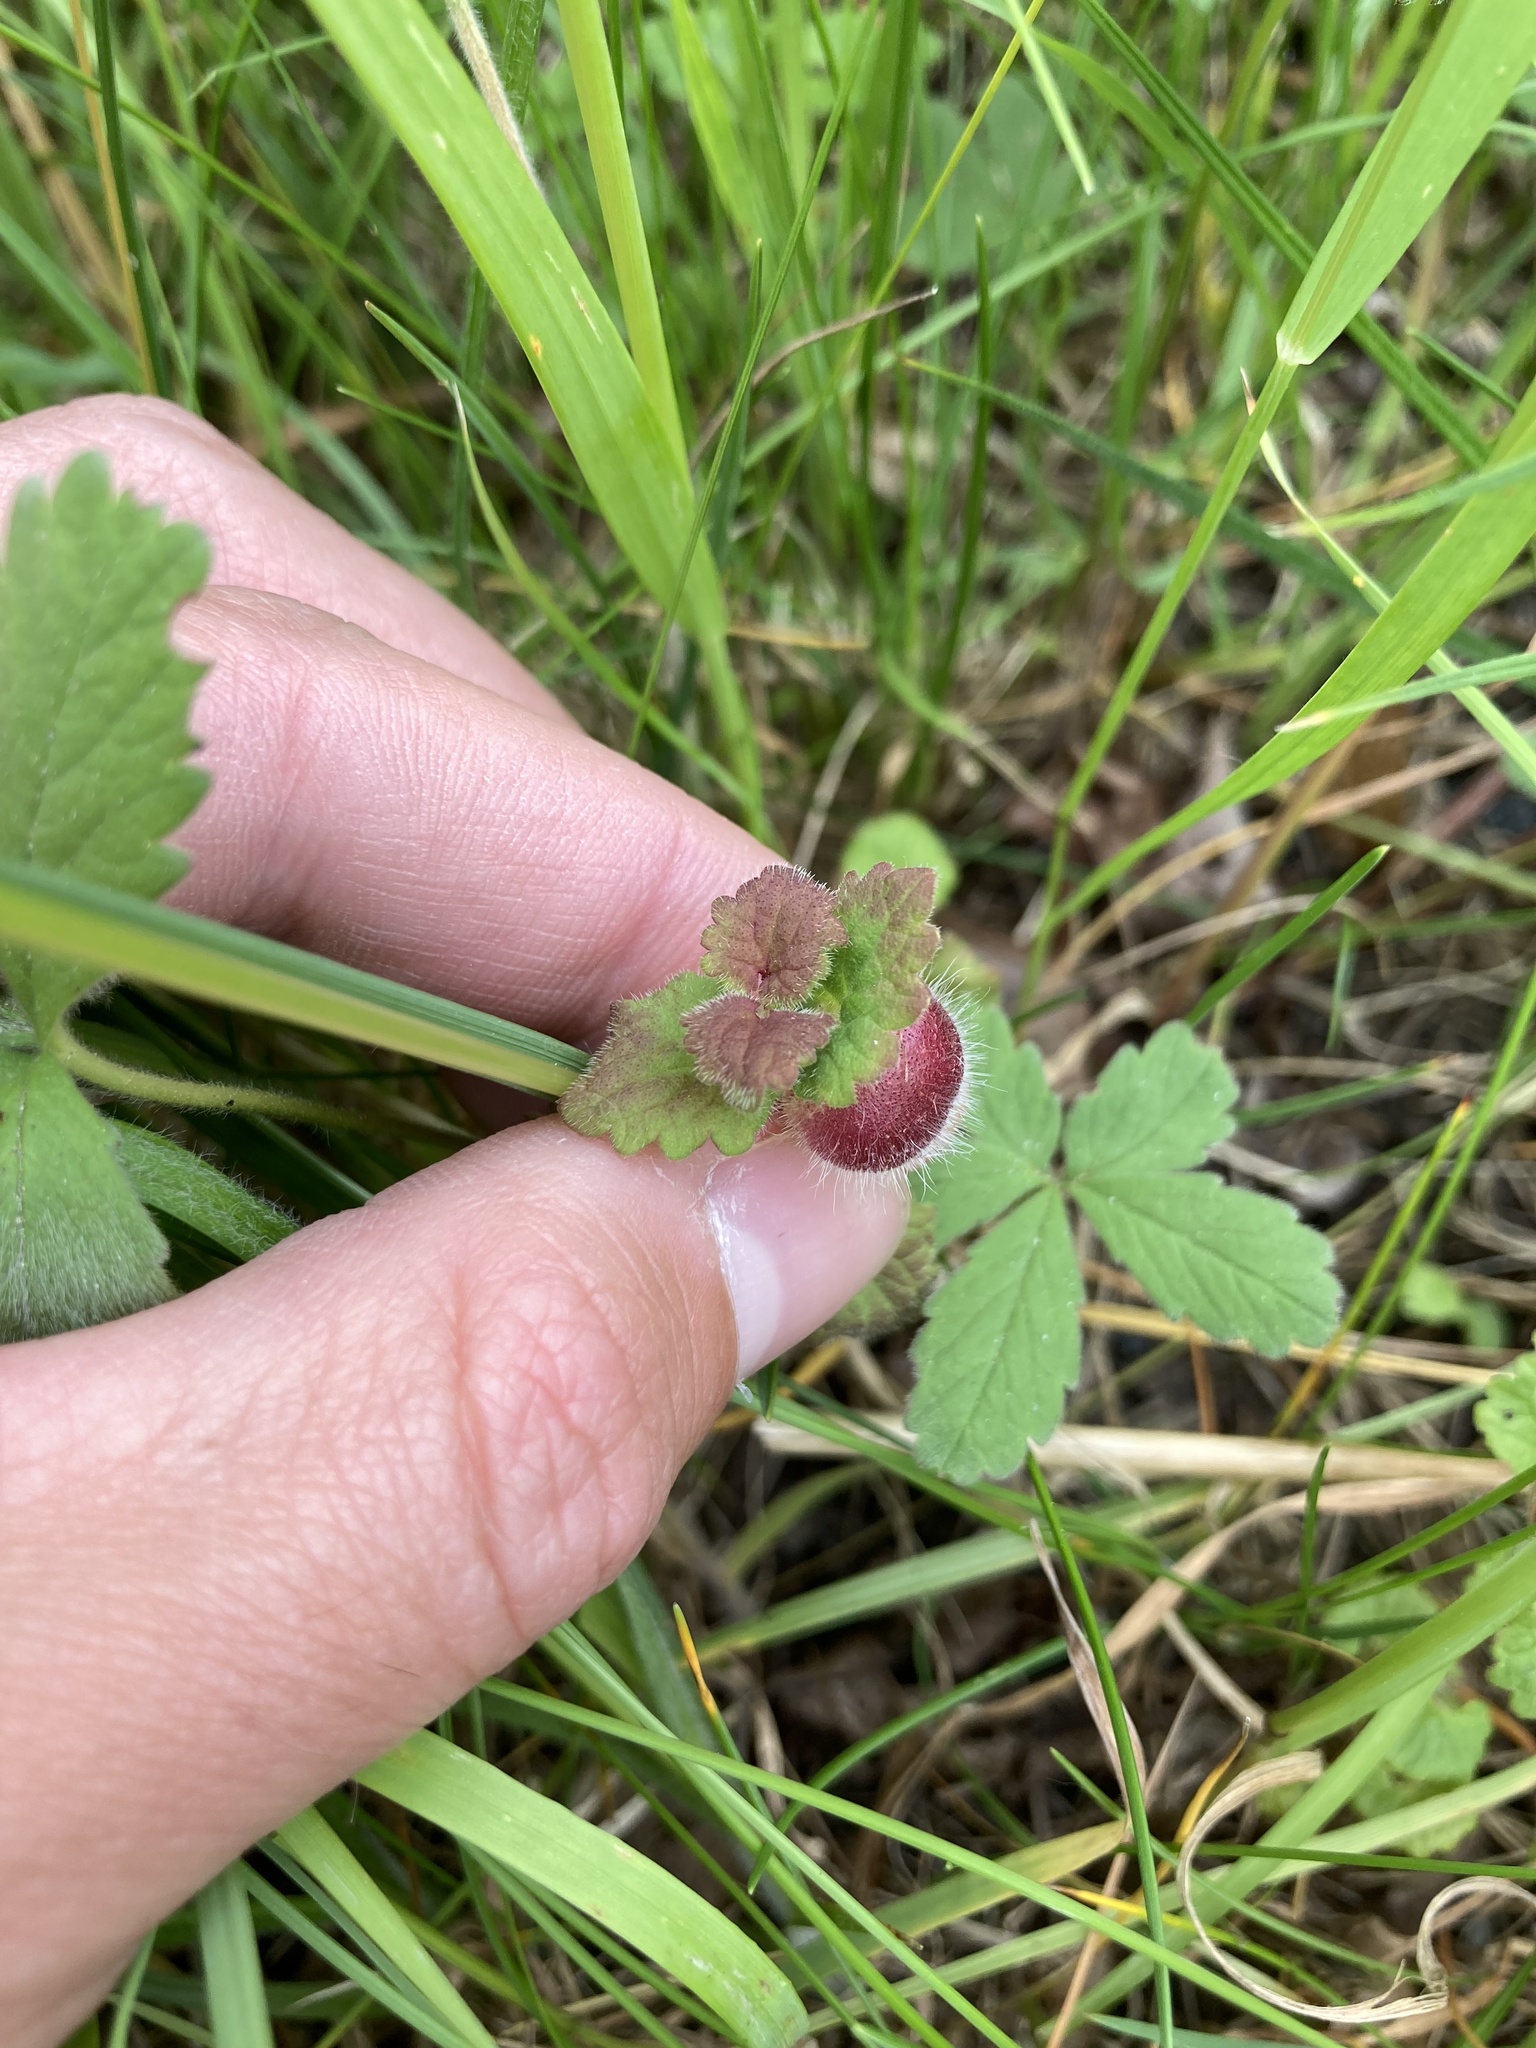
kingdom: Animalia
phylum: Arthropoda
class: Insecta
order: Hymenoptera
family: Cynipidae
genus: Liposthenes
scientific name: Liposthenes glechomae
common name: Gall wasp
